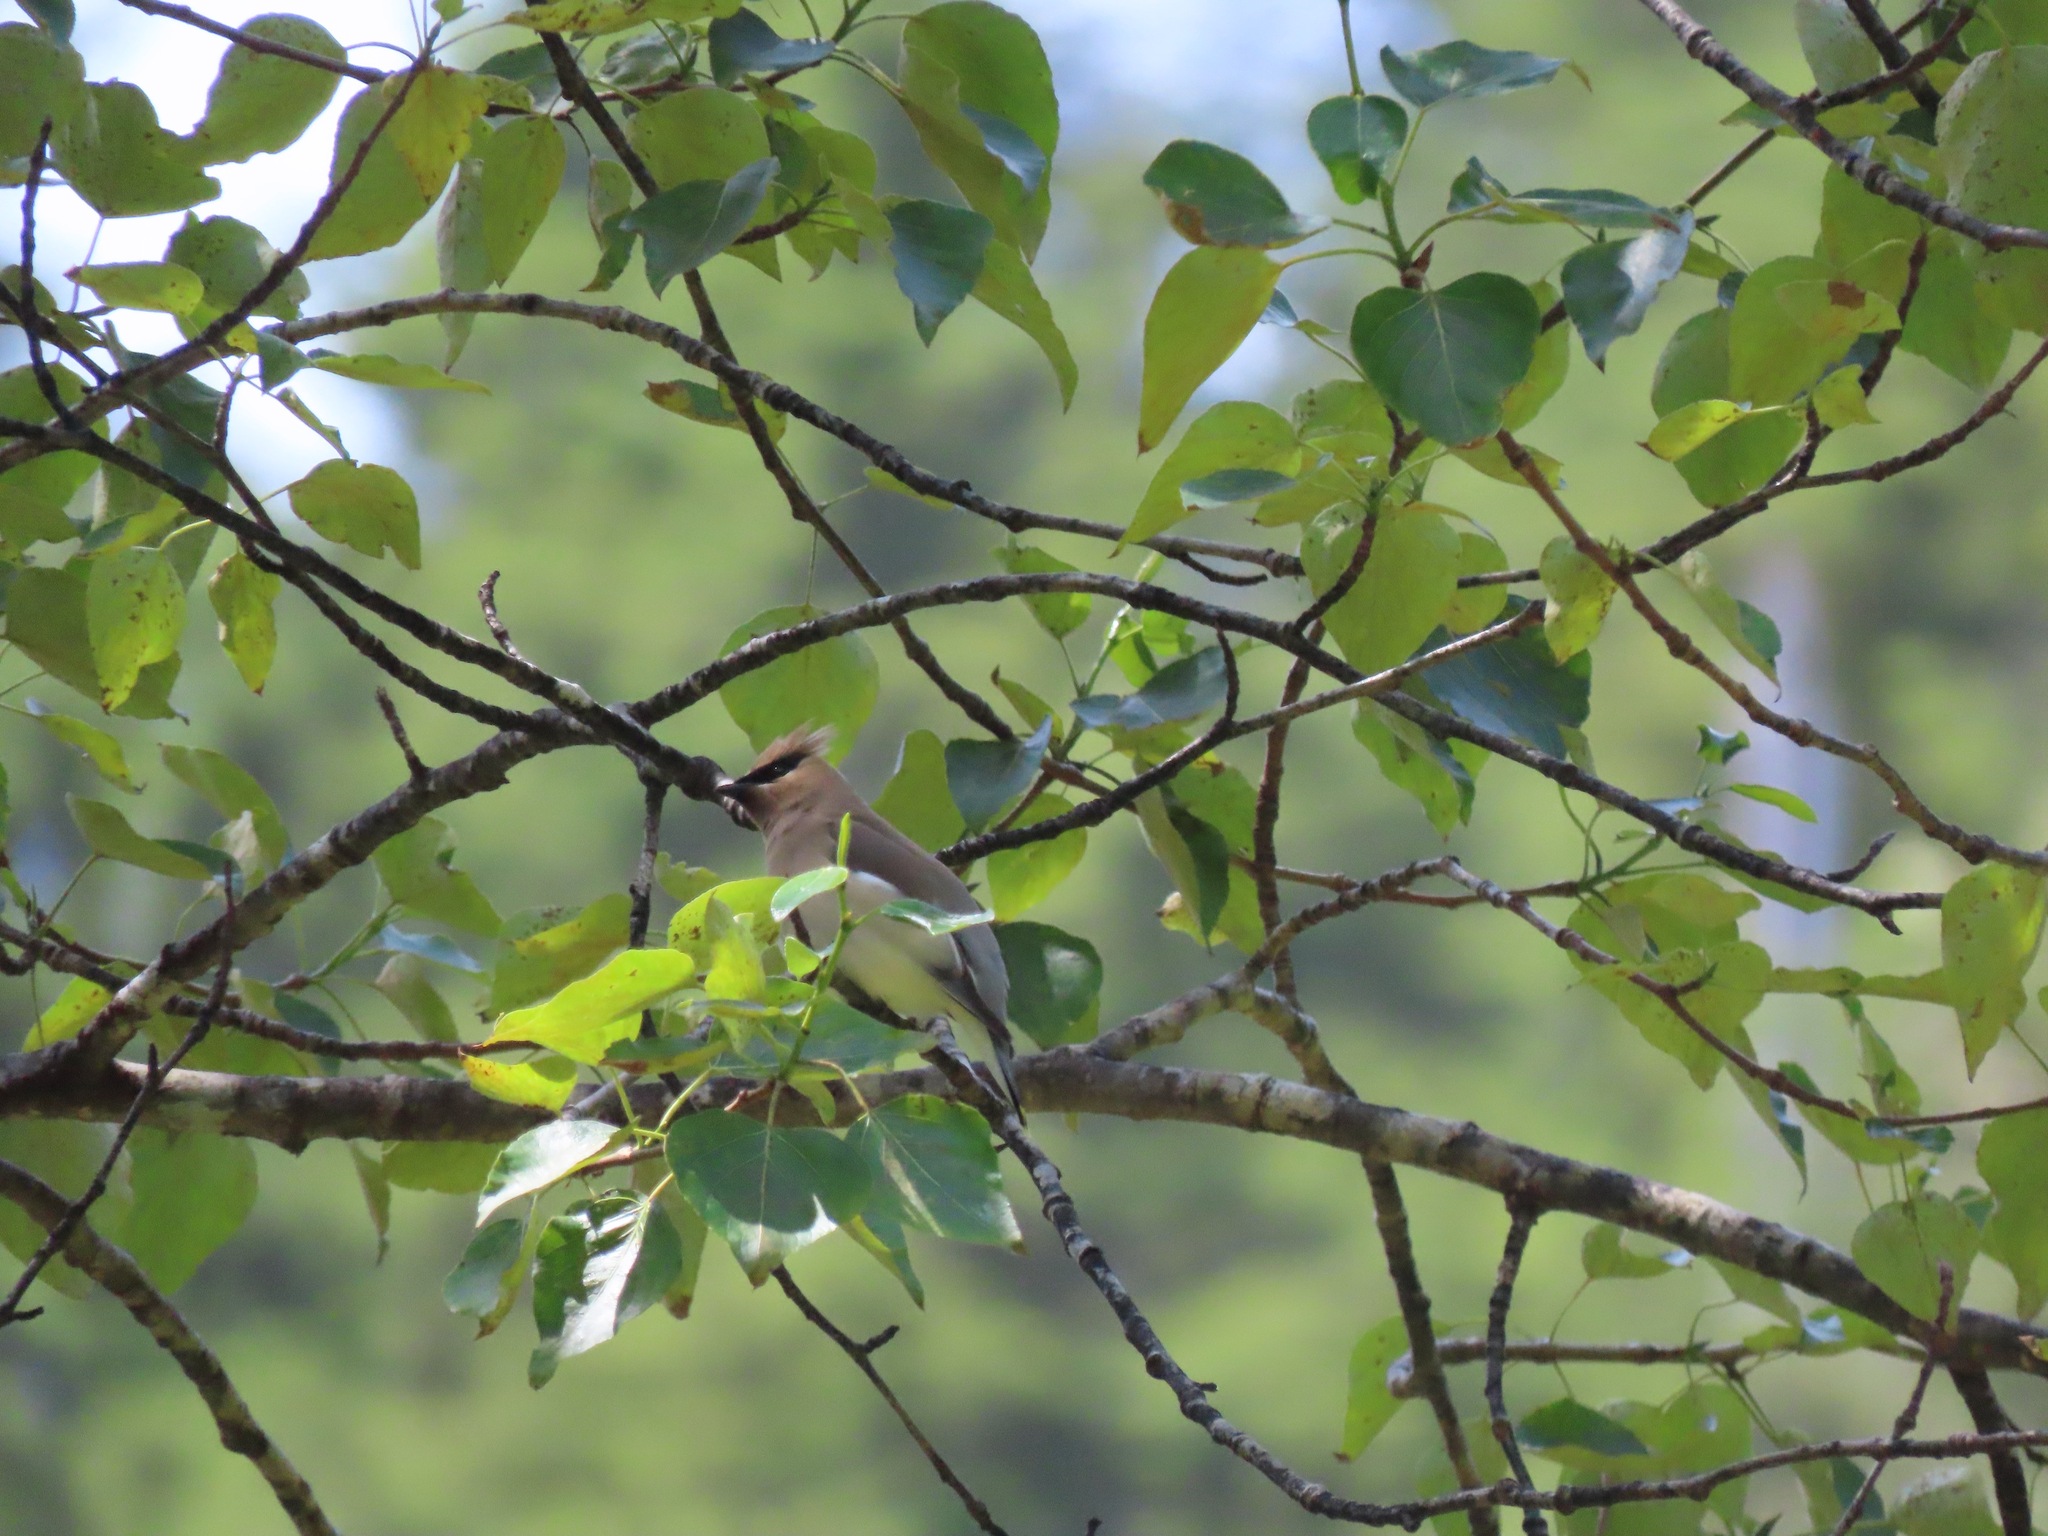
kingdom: Animalia
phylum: Chordata
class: Aves
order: Passeriformes
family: Bombycillidae
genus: Bombycilla
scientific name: Bombycilla cedrorum
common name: Cedar waxwing
